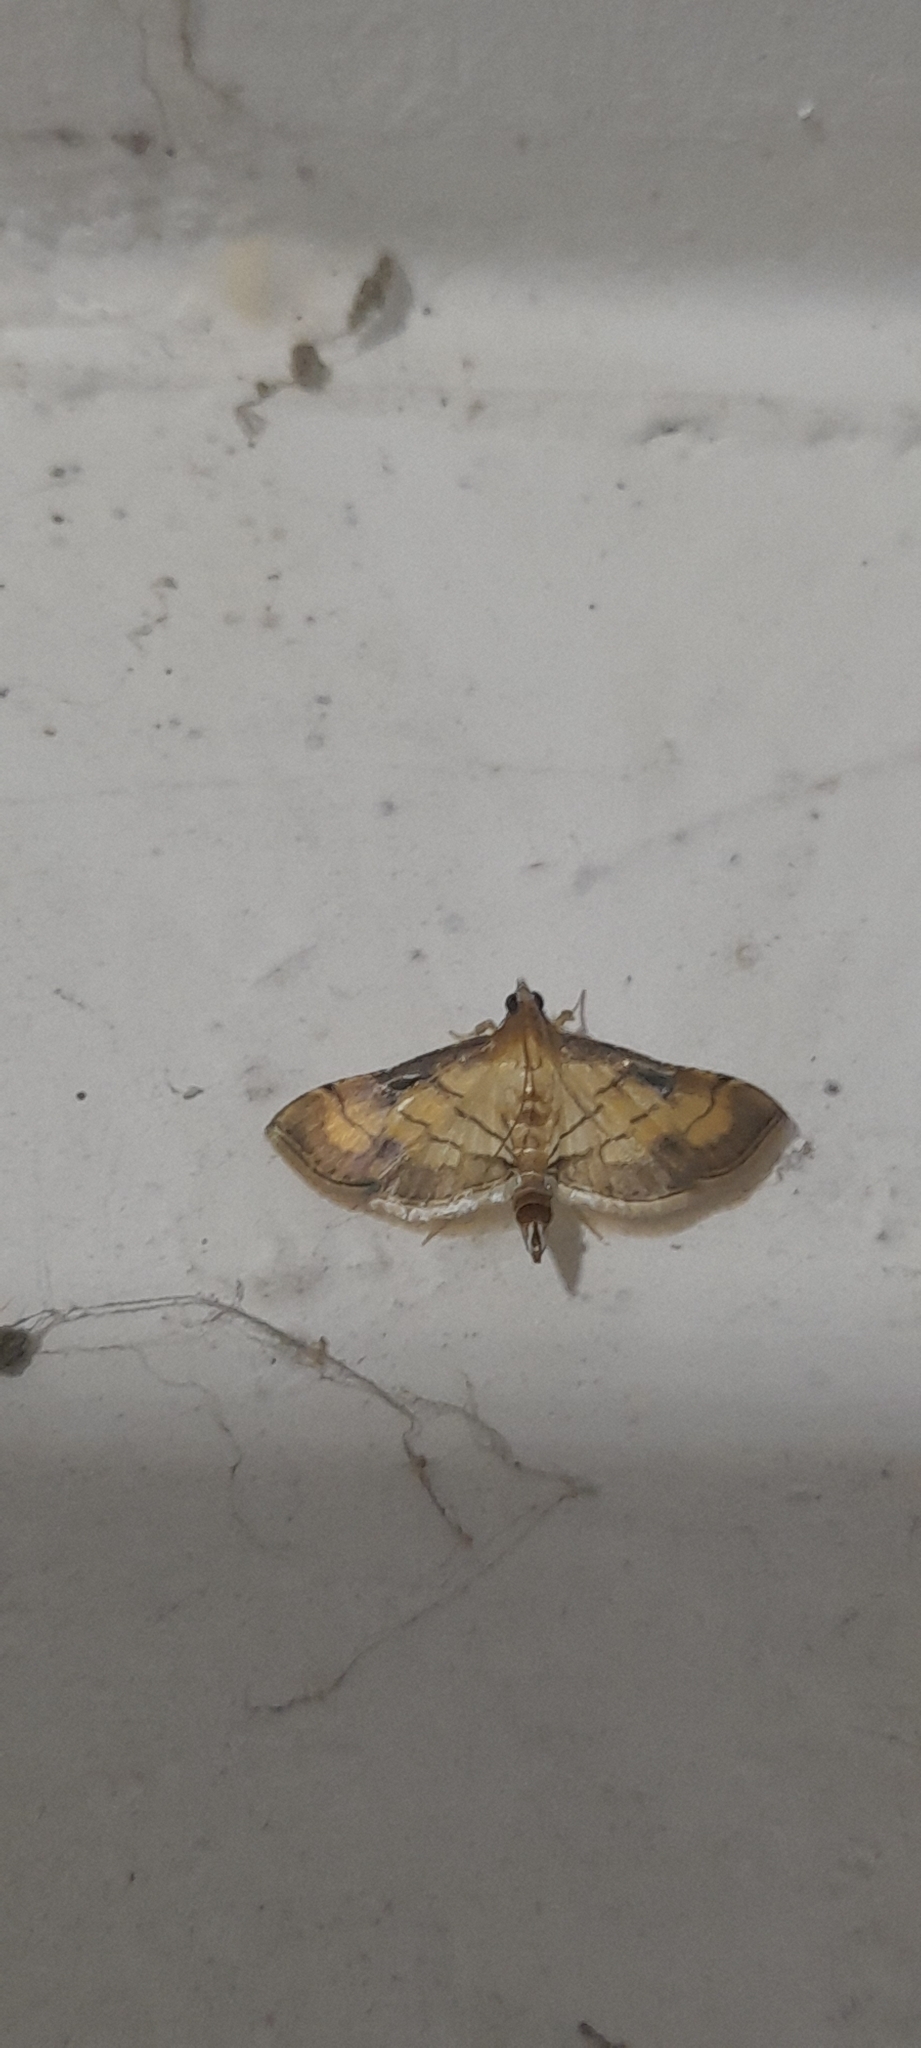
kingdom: Animalia
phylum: Arthropoda
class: Insecta
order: Lepidoptera
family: Crambidae
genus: Cnaphalocrocis
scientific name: Cnaphalocrocis poeyalis
